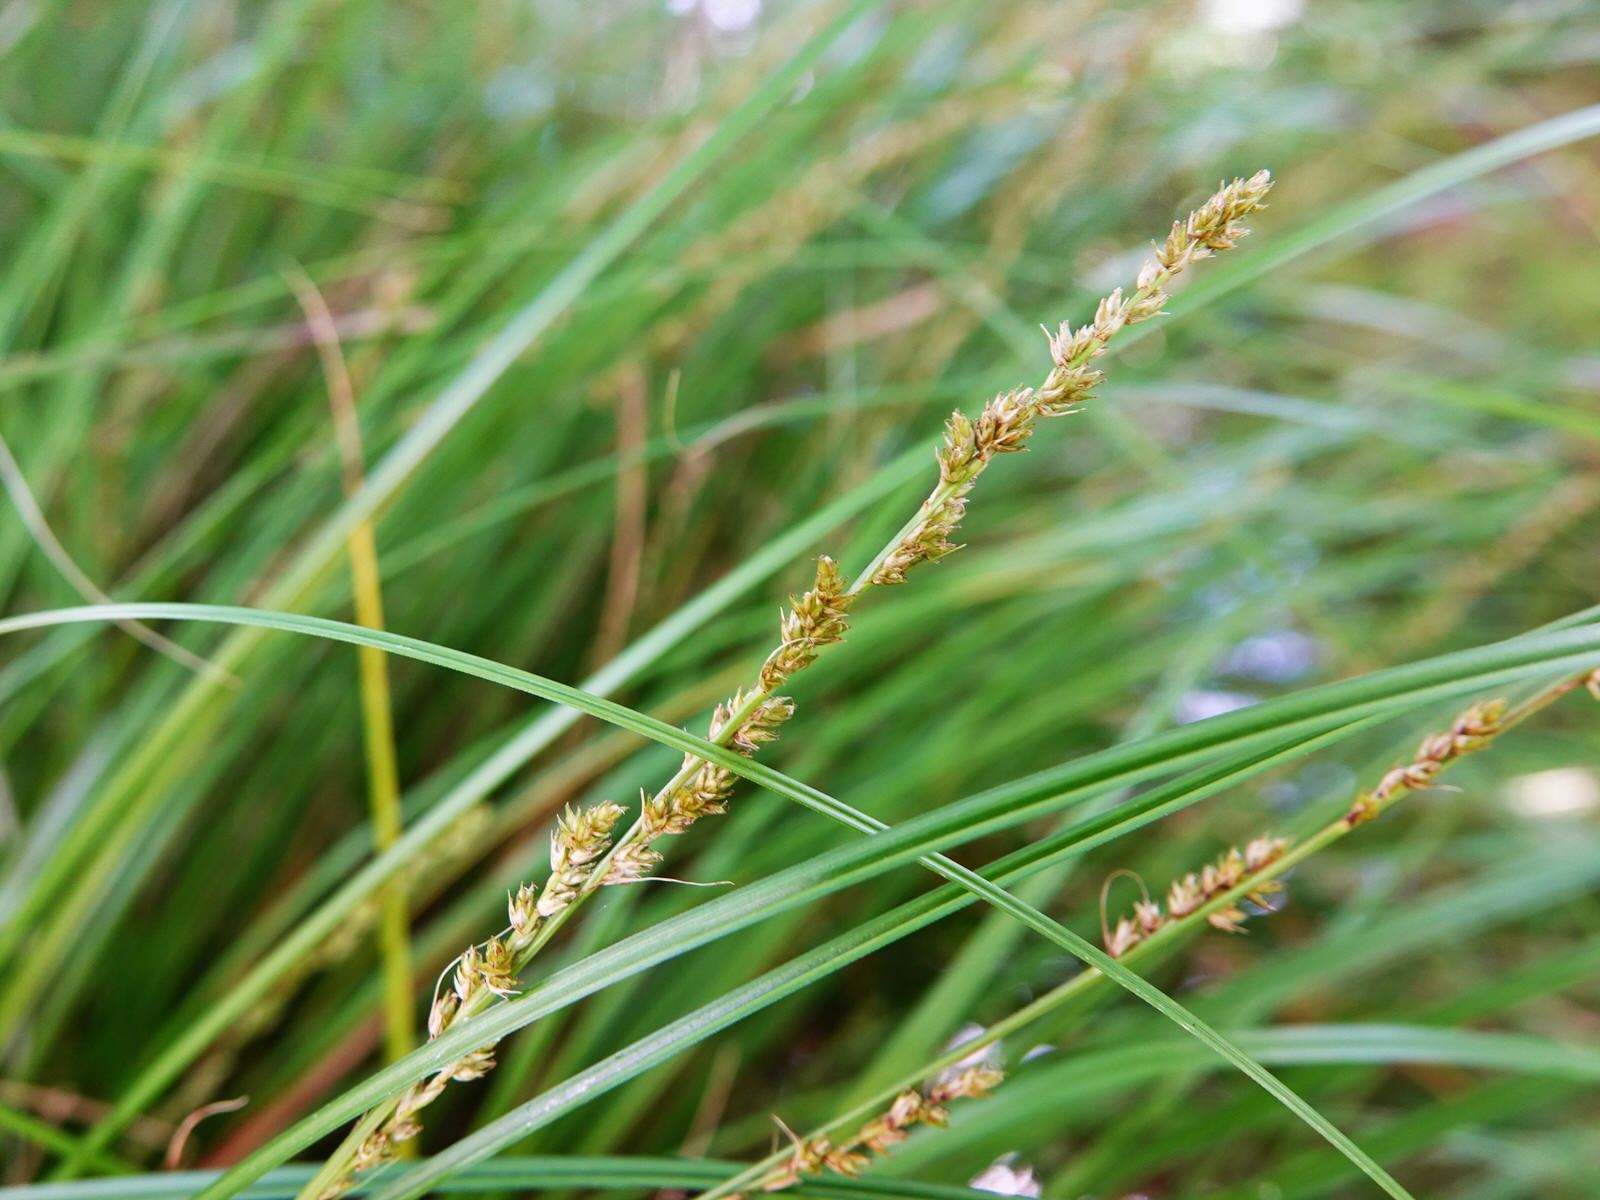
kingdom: Plantae
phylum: Tracheophyta
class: Liliopsida
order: Poales
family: Cyperaceae
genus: Carex
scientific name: Carex virgata
